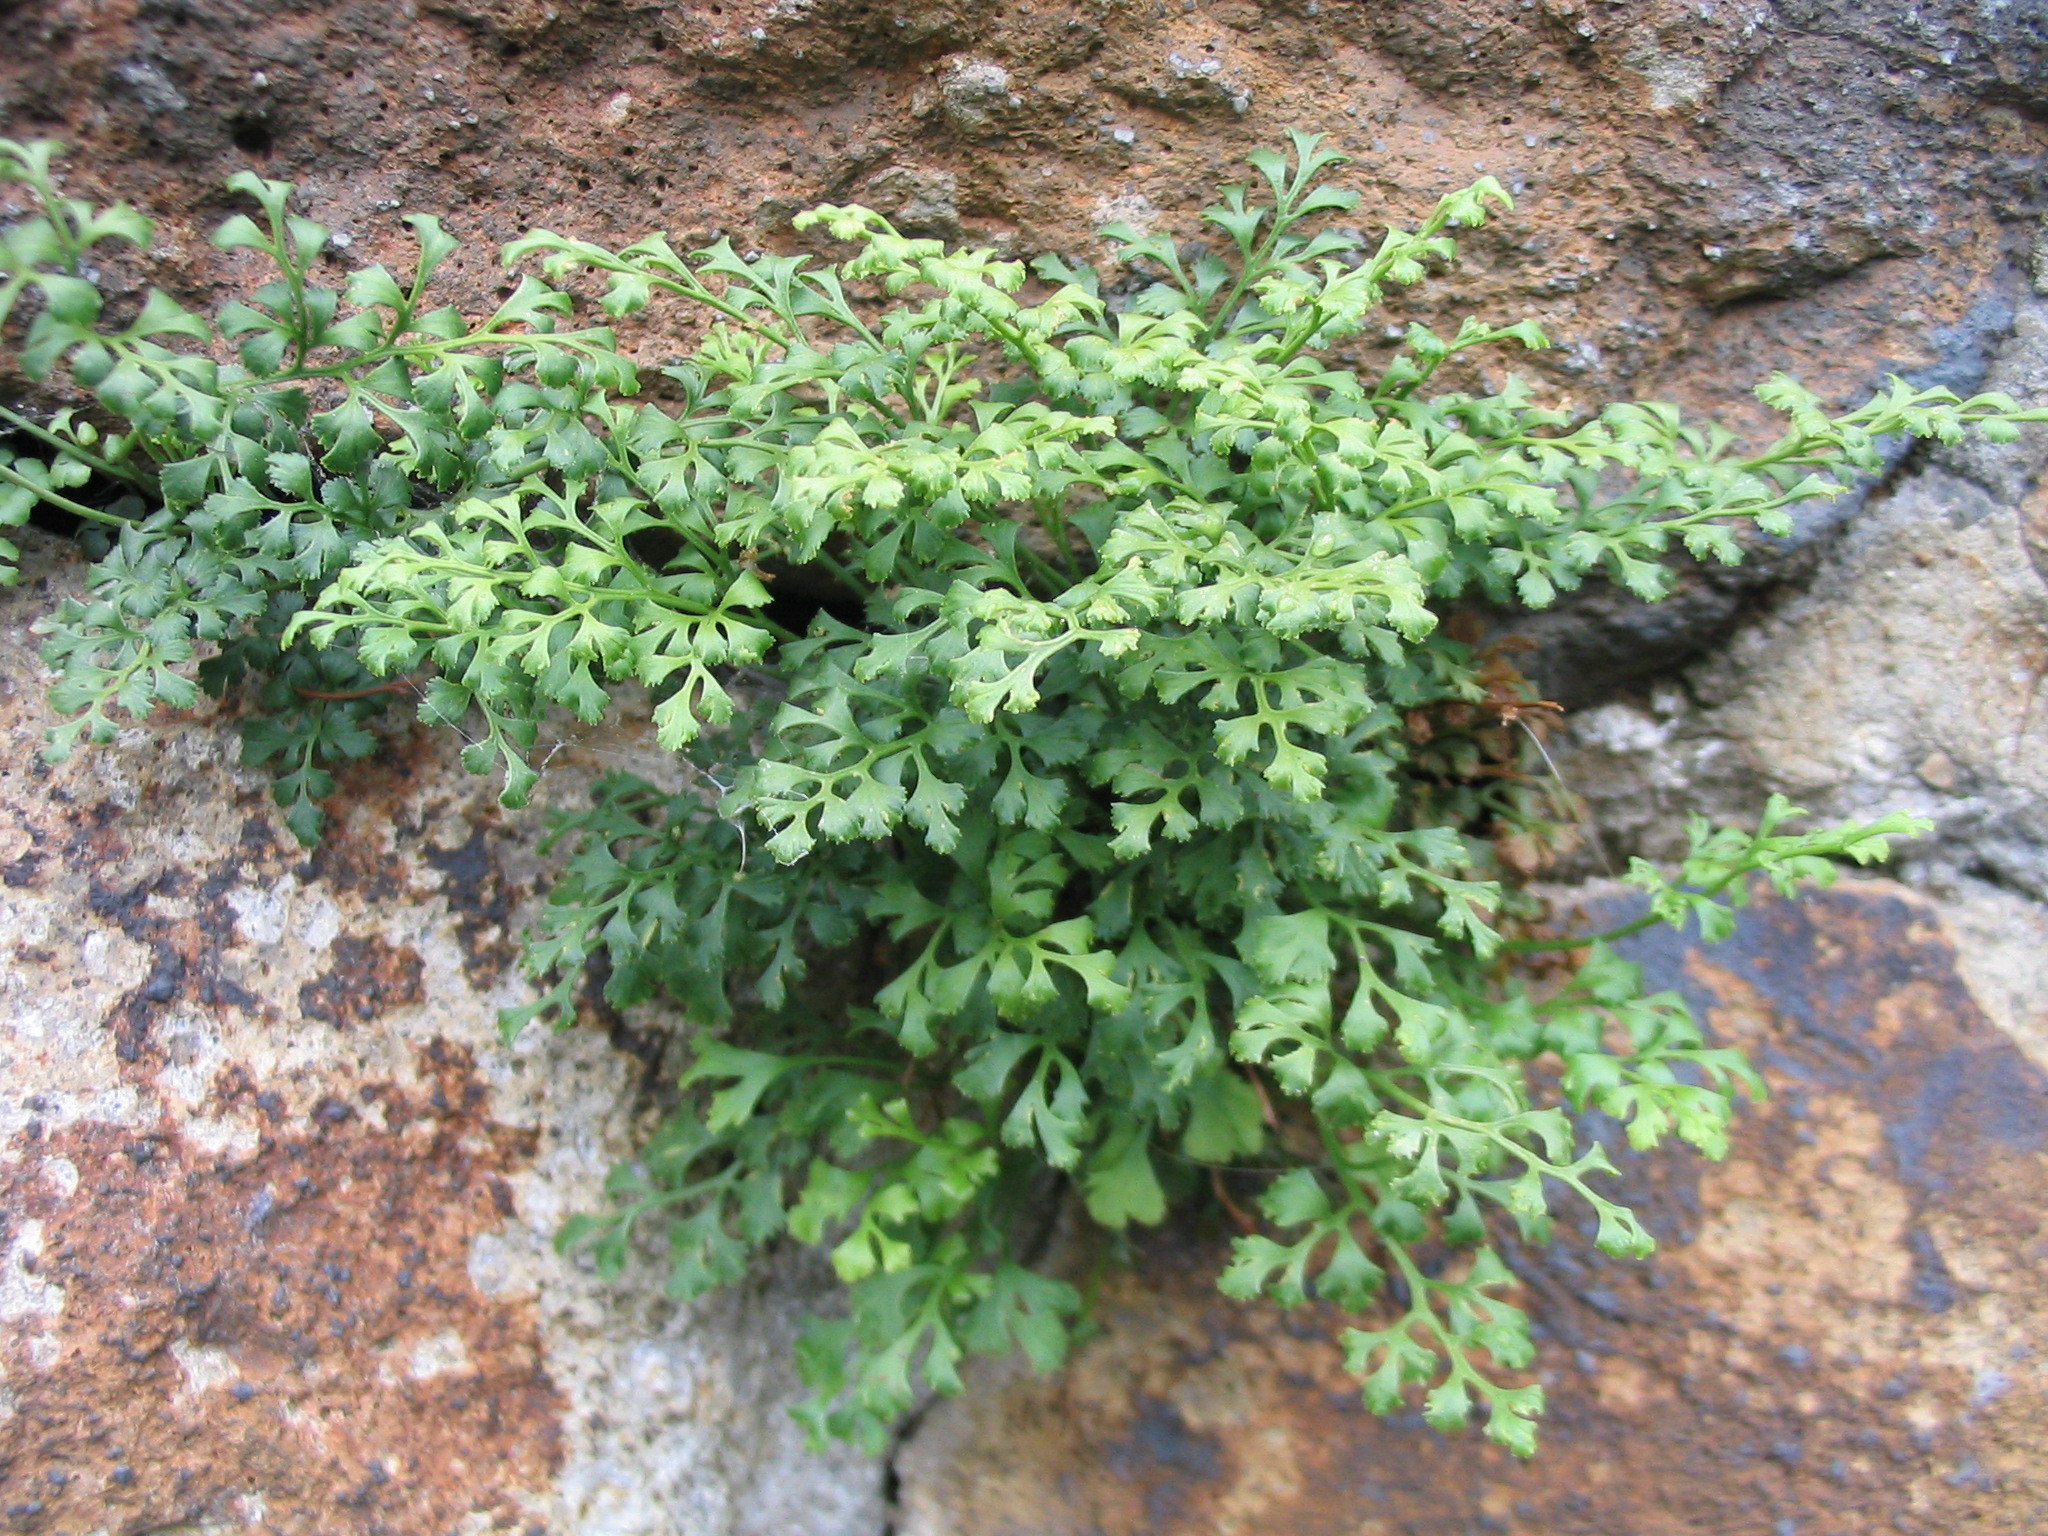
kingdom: Plantae
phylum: Tracheophyta
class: Polypodiopsida
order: Polypodiales
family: Aspleniaceae
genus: Asplenium
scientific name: Asplenium ruta-muraria
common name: Wall-rue
